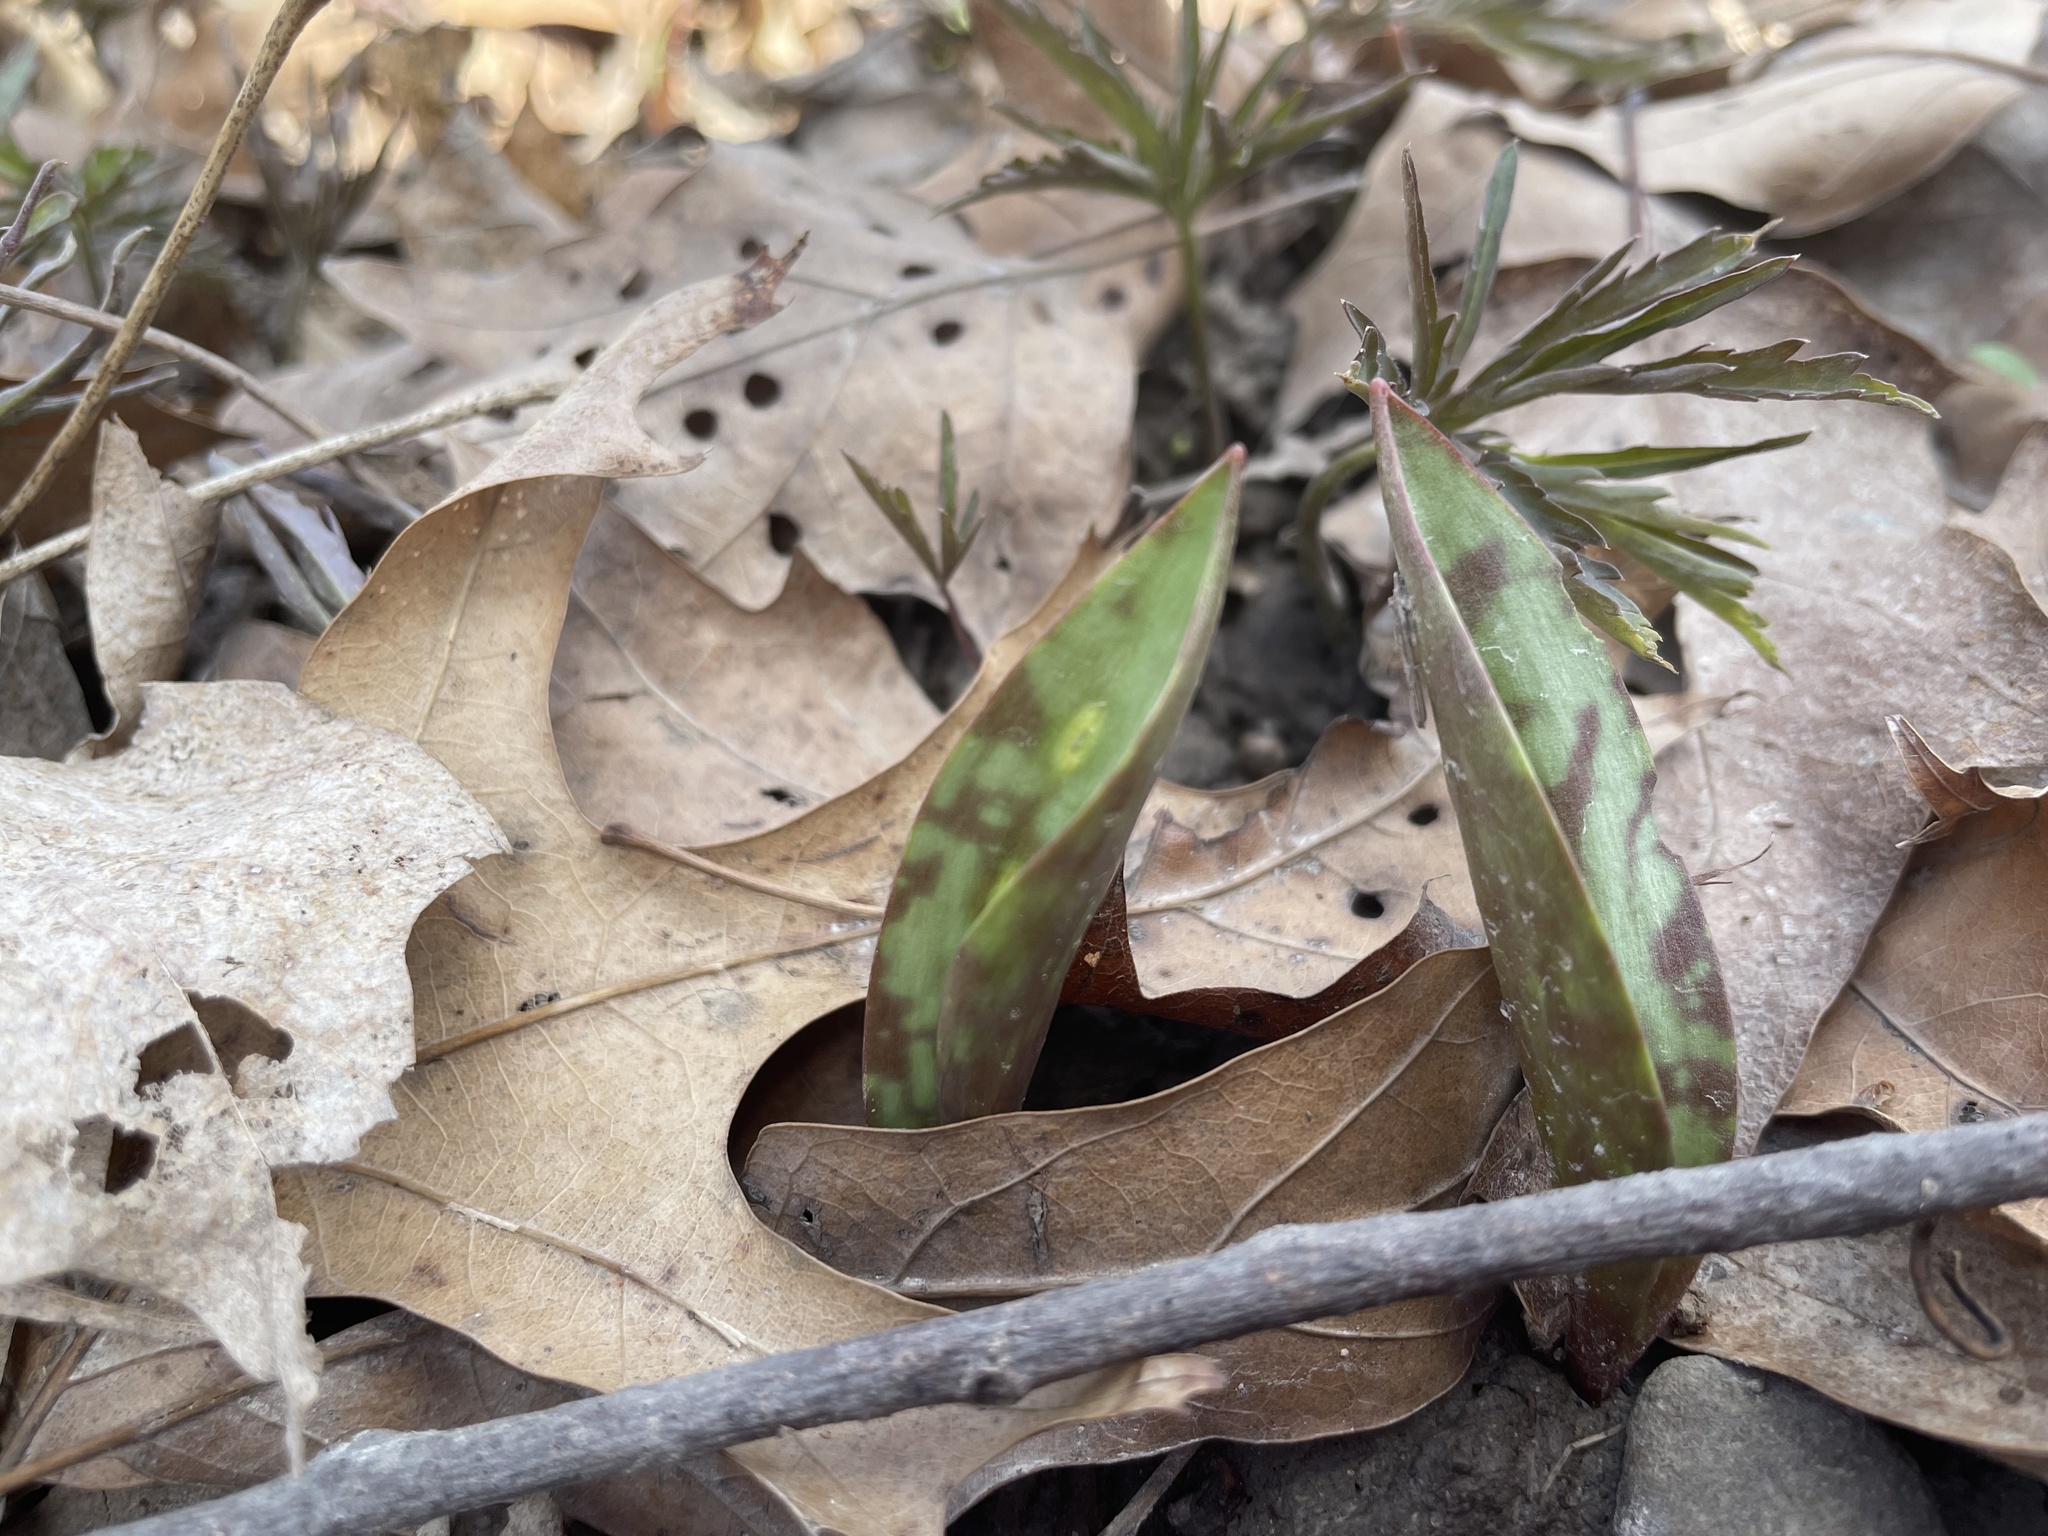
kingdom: Plantae
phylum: Tracheophyta
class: Liliopsida
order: Liliales
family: Liliaceae
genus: Erythronium
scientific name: Erythronium americanum
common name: Yellow adder's-tongue
